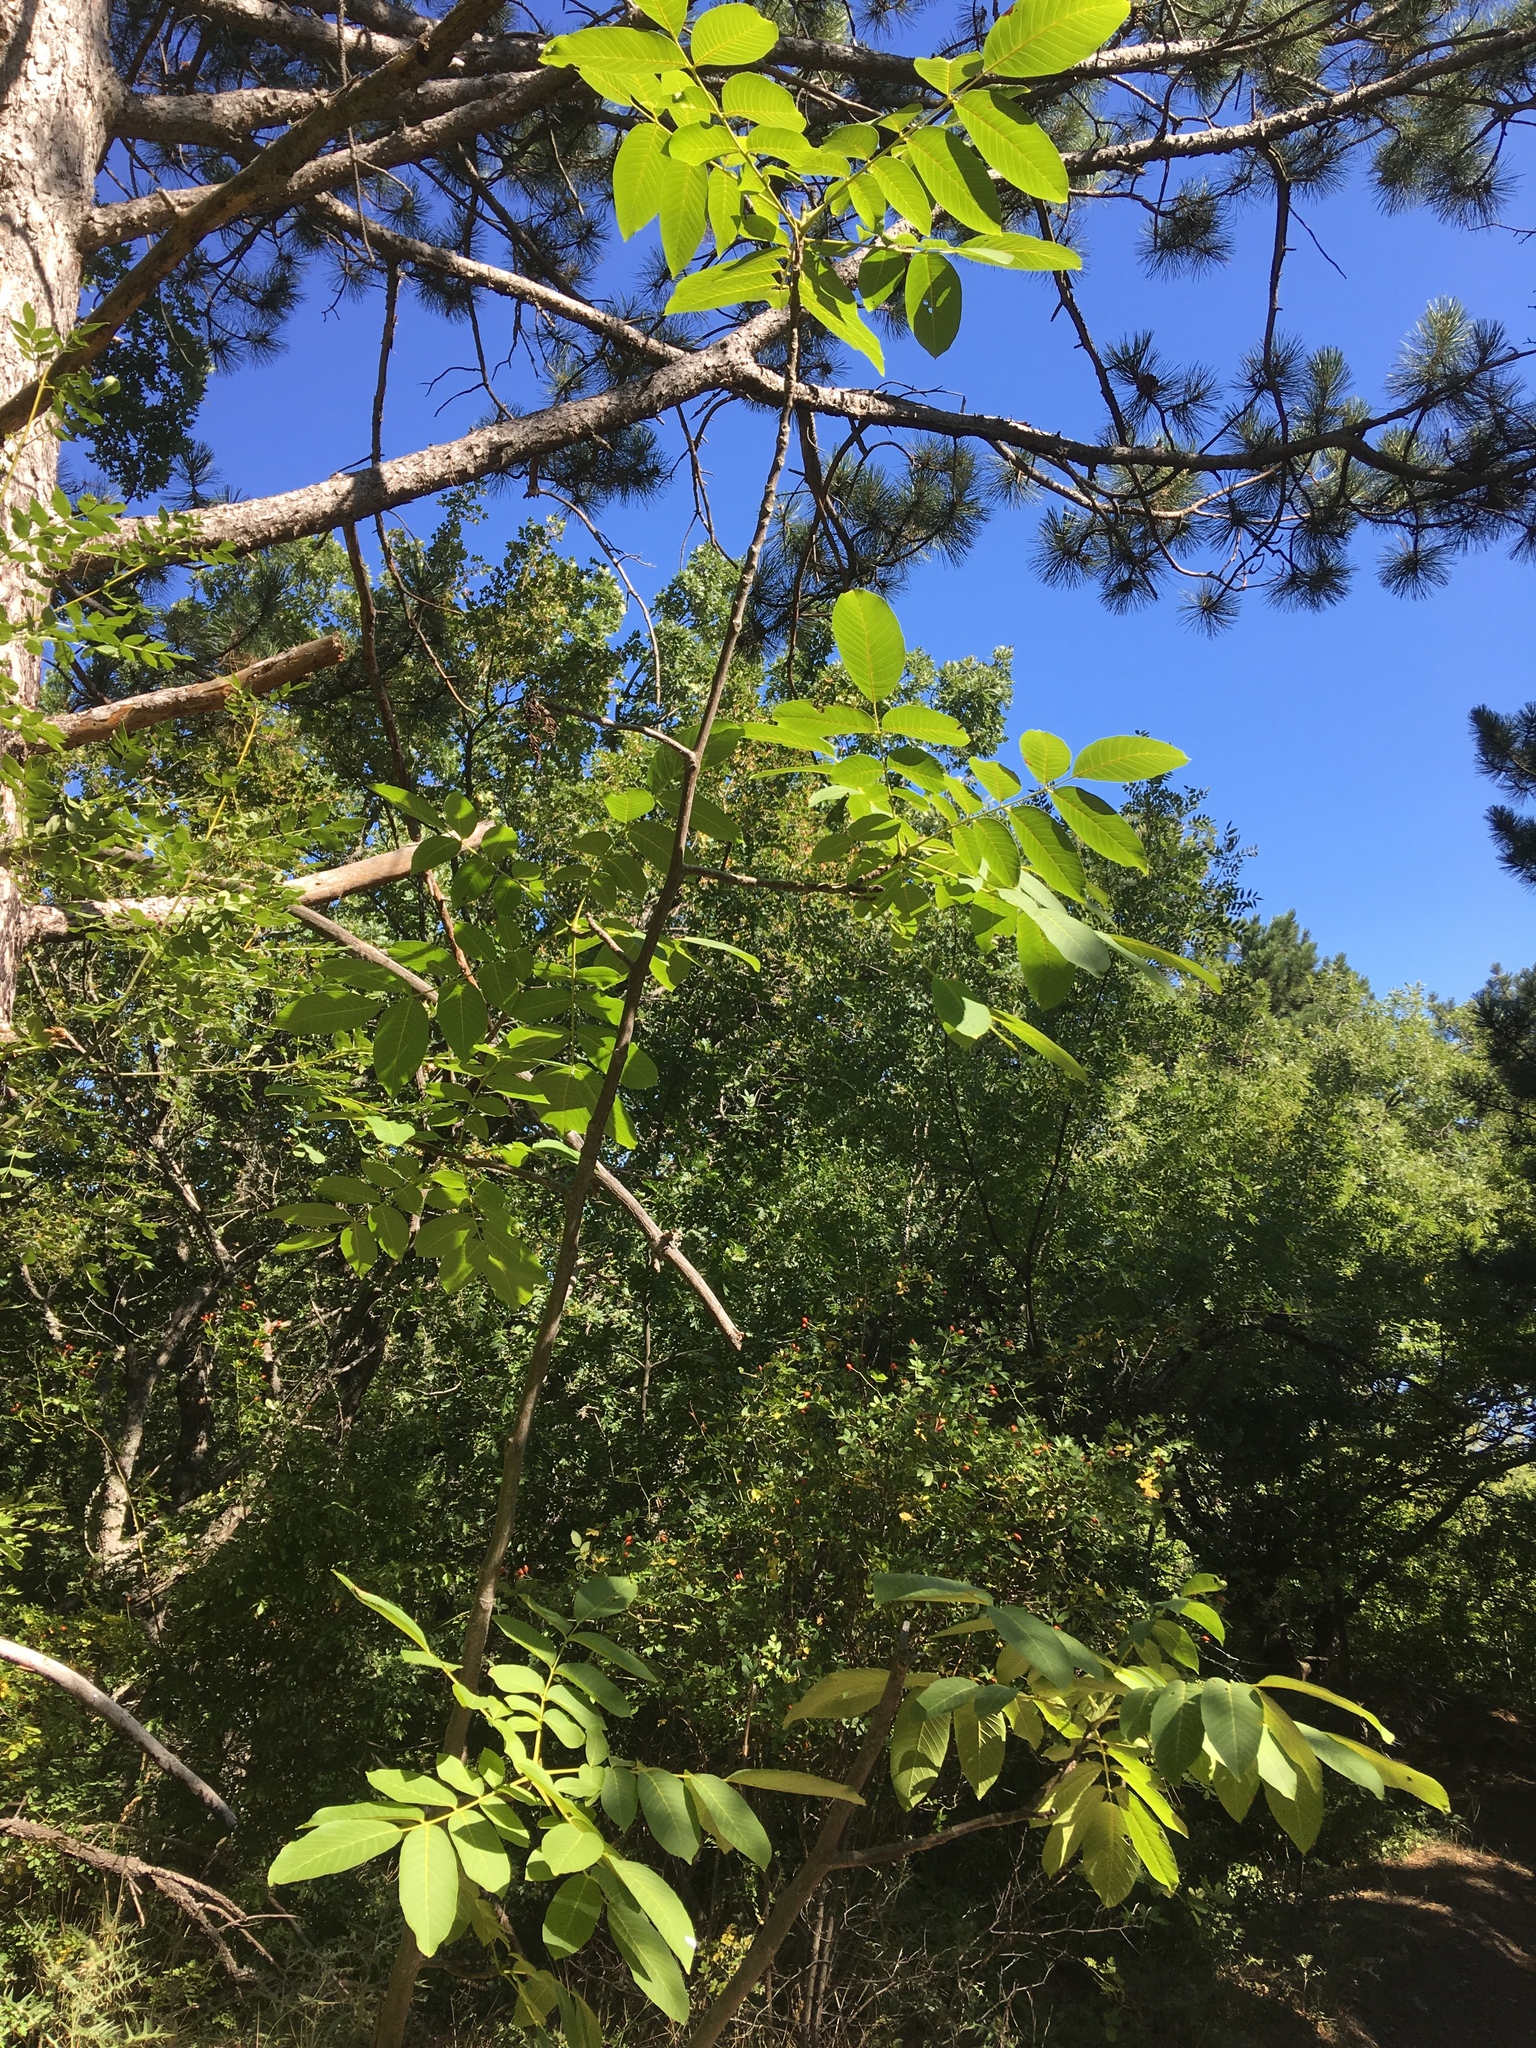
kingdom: Plantae
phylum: Tracheophyta
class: Magnoliopsida
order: Fagales
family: Juglandaceae
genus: Juglans
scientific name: Juglans regia
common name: Walnut
